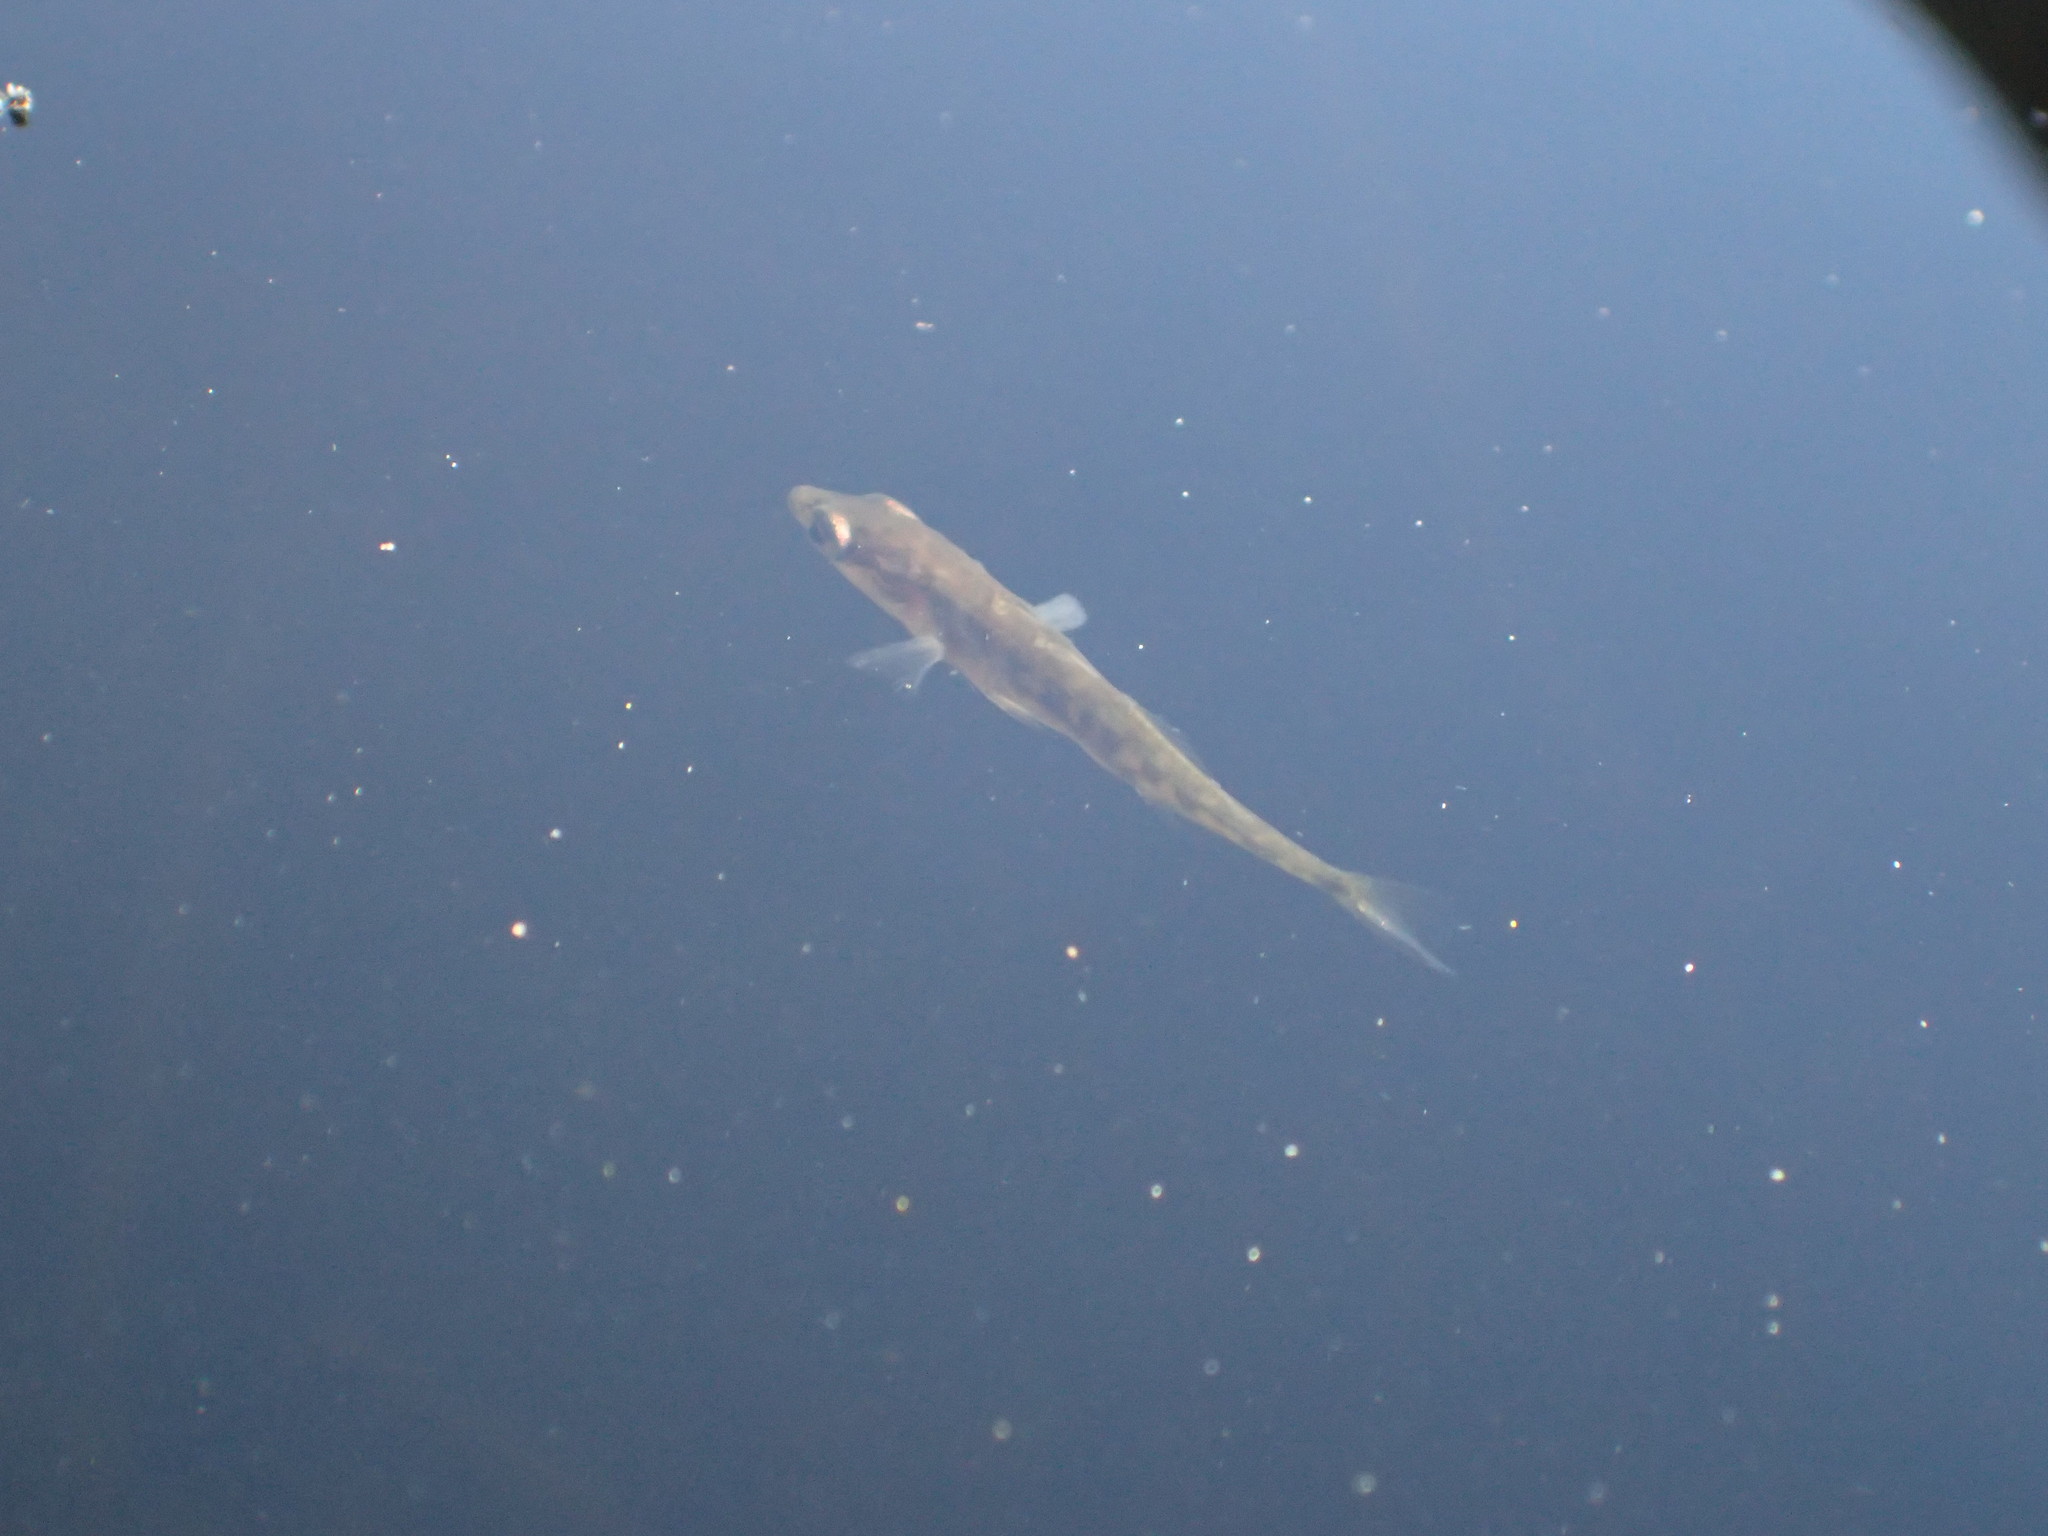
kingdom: Animalia
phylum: Chordata
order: Gasterosteiformes
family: Gasterosteidae
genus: Gasterosteus
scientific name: Gasterosteus aculeatus
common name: Three-spined stickleback
